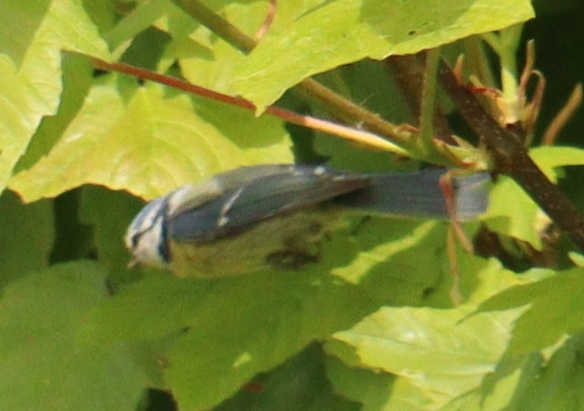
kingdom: Animalia
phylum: Chordata
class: Aves
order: Passeriformes
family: Paridae
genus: Cyanistes
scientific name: Cyanistes caeruleus
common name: Eurasian blue tit
